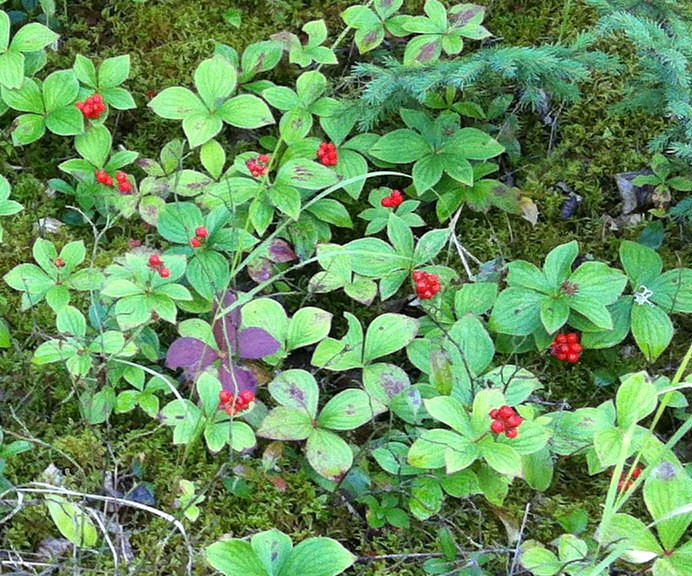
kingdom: Plantae
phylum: Tracheophyta
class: Magnoliopsida
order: Cornales
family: Cornaceae
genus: Cornus
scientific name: Cornus canadensis
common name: Creeping dogwood
